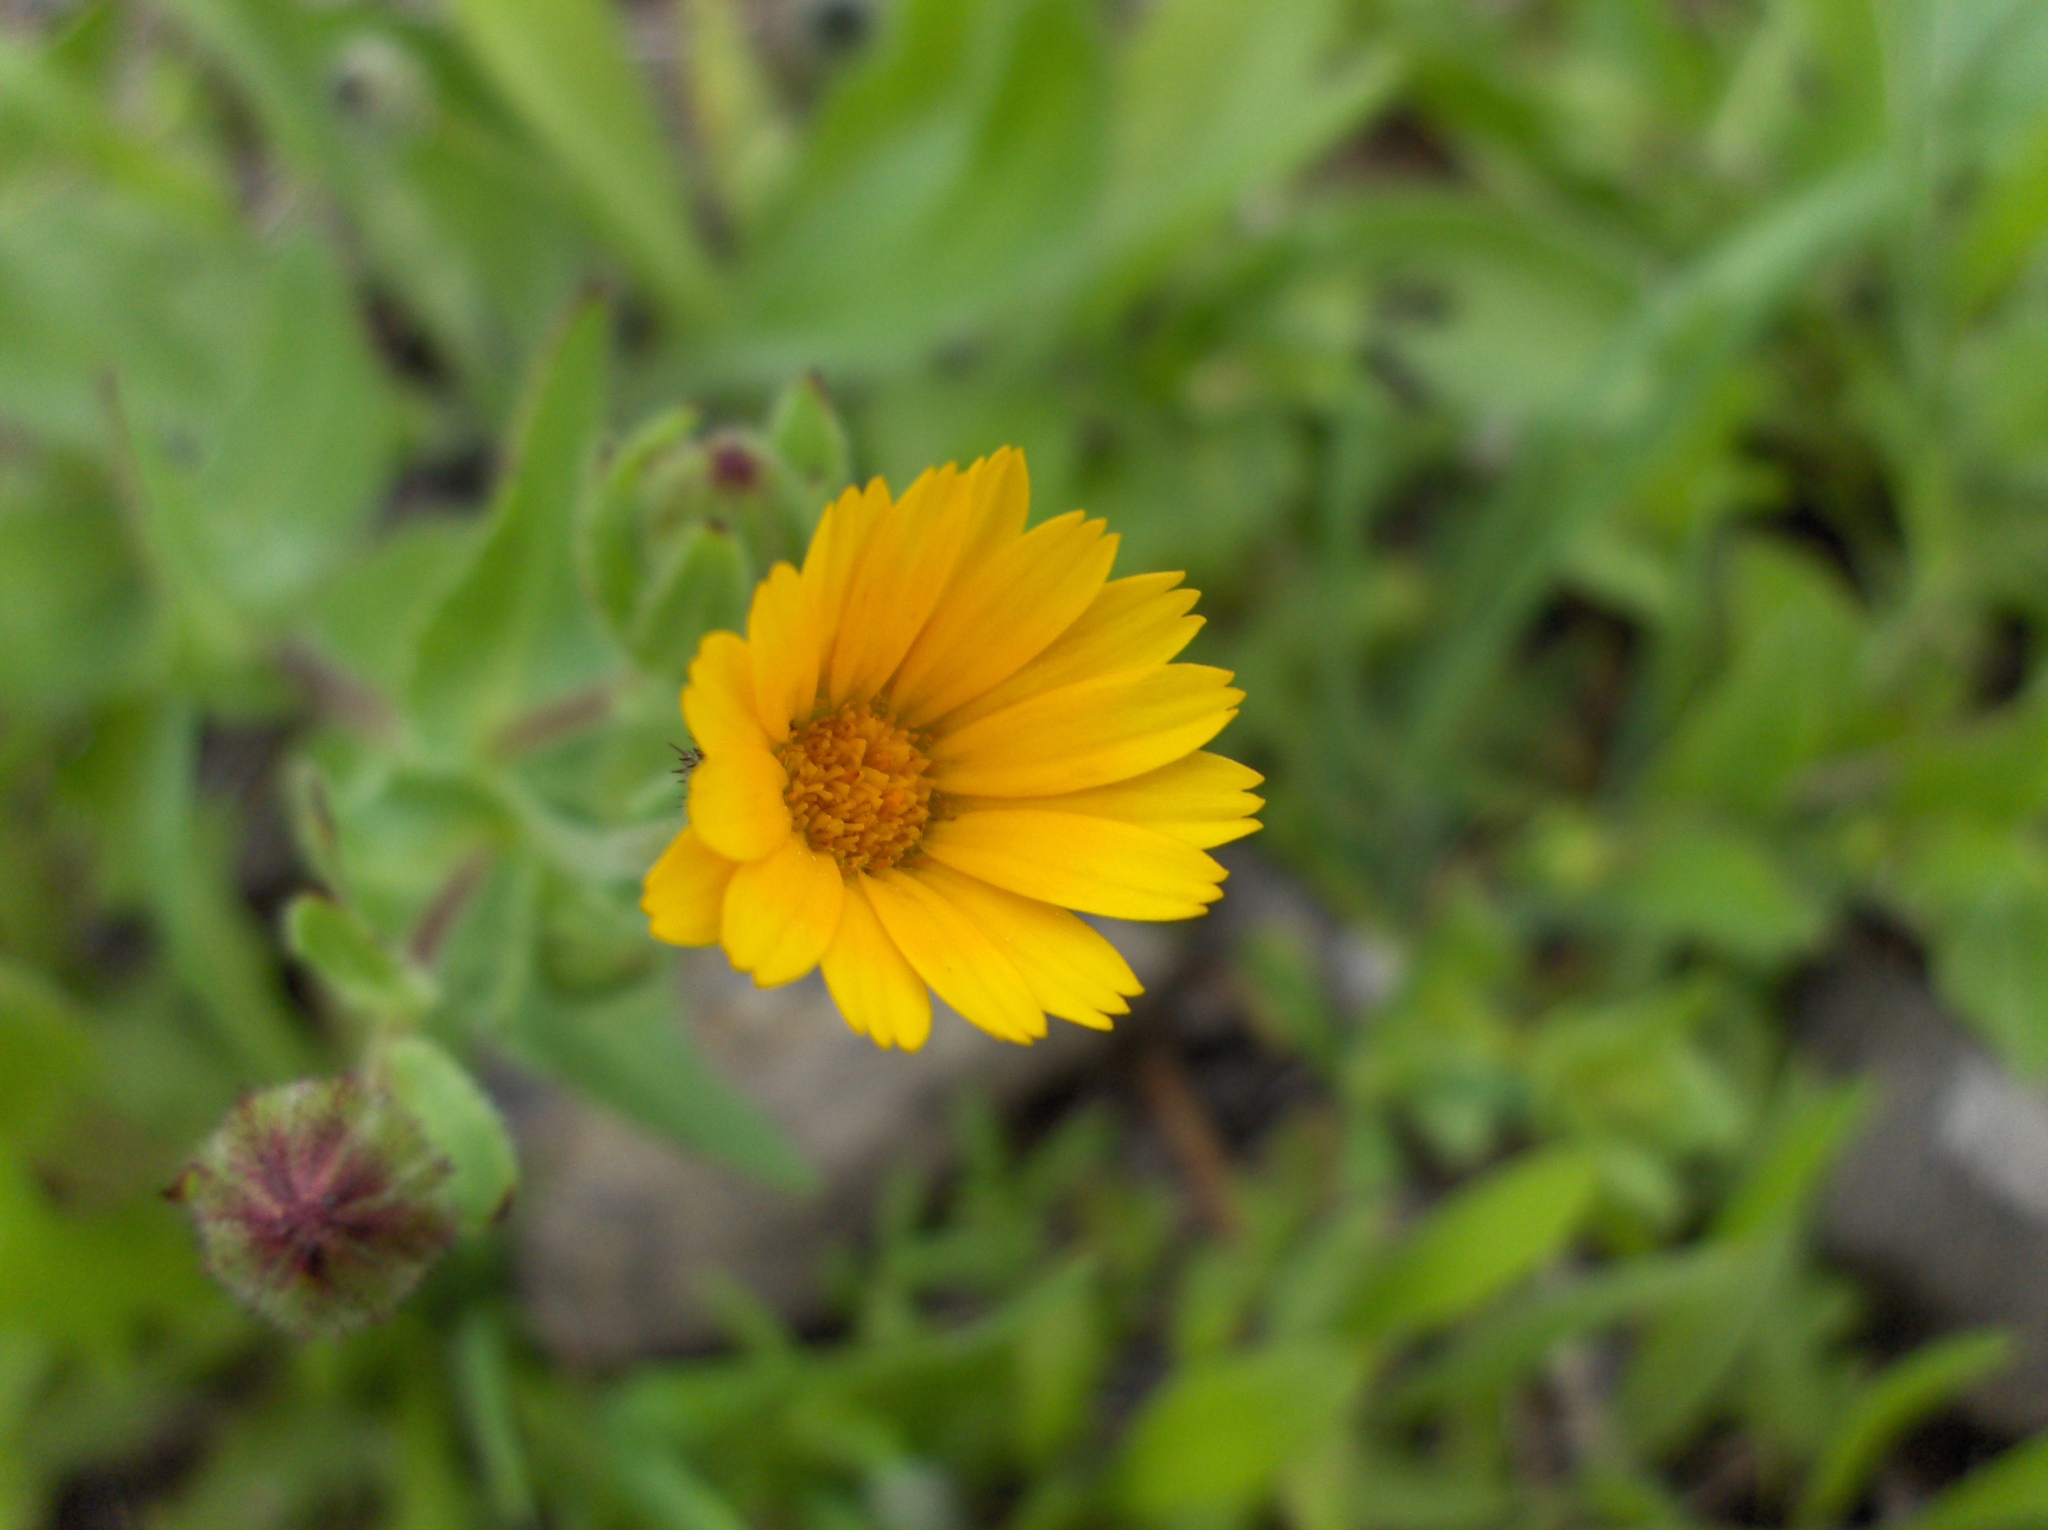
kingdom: Plantae
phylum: Tracheophyta
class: Magnoliopsida
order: Asterales
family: Asteraceae
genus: Calendula
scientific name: Calendula arvensis
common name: Field marigold
